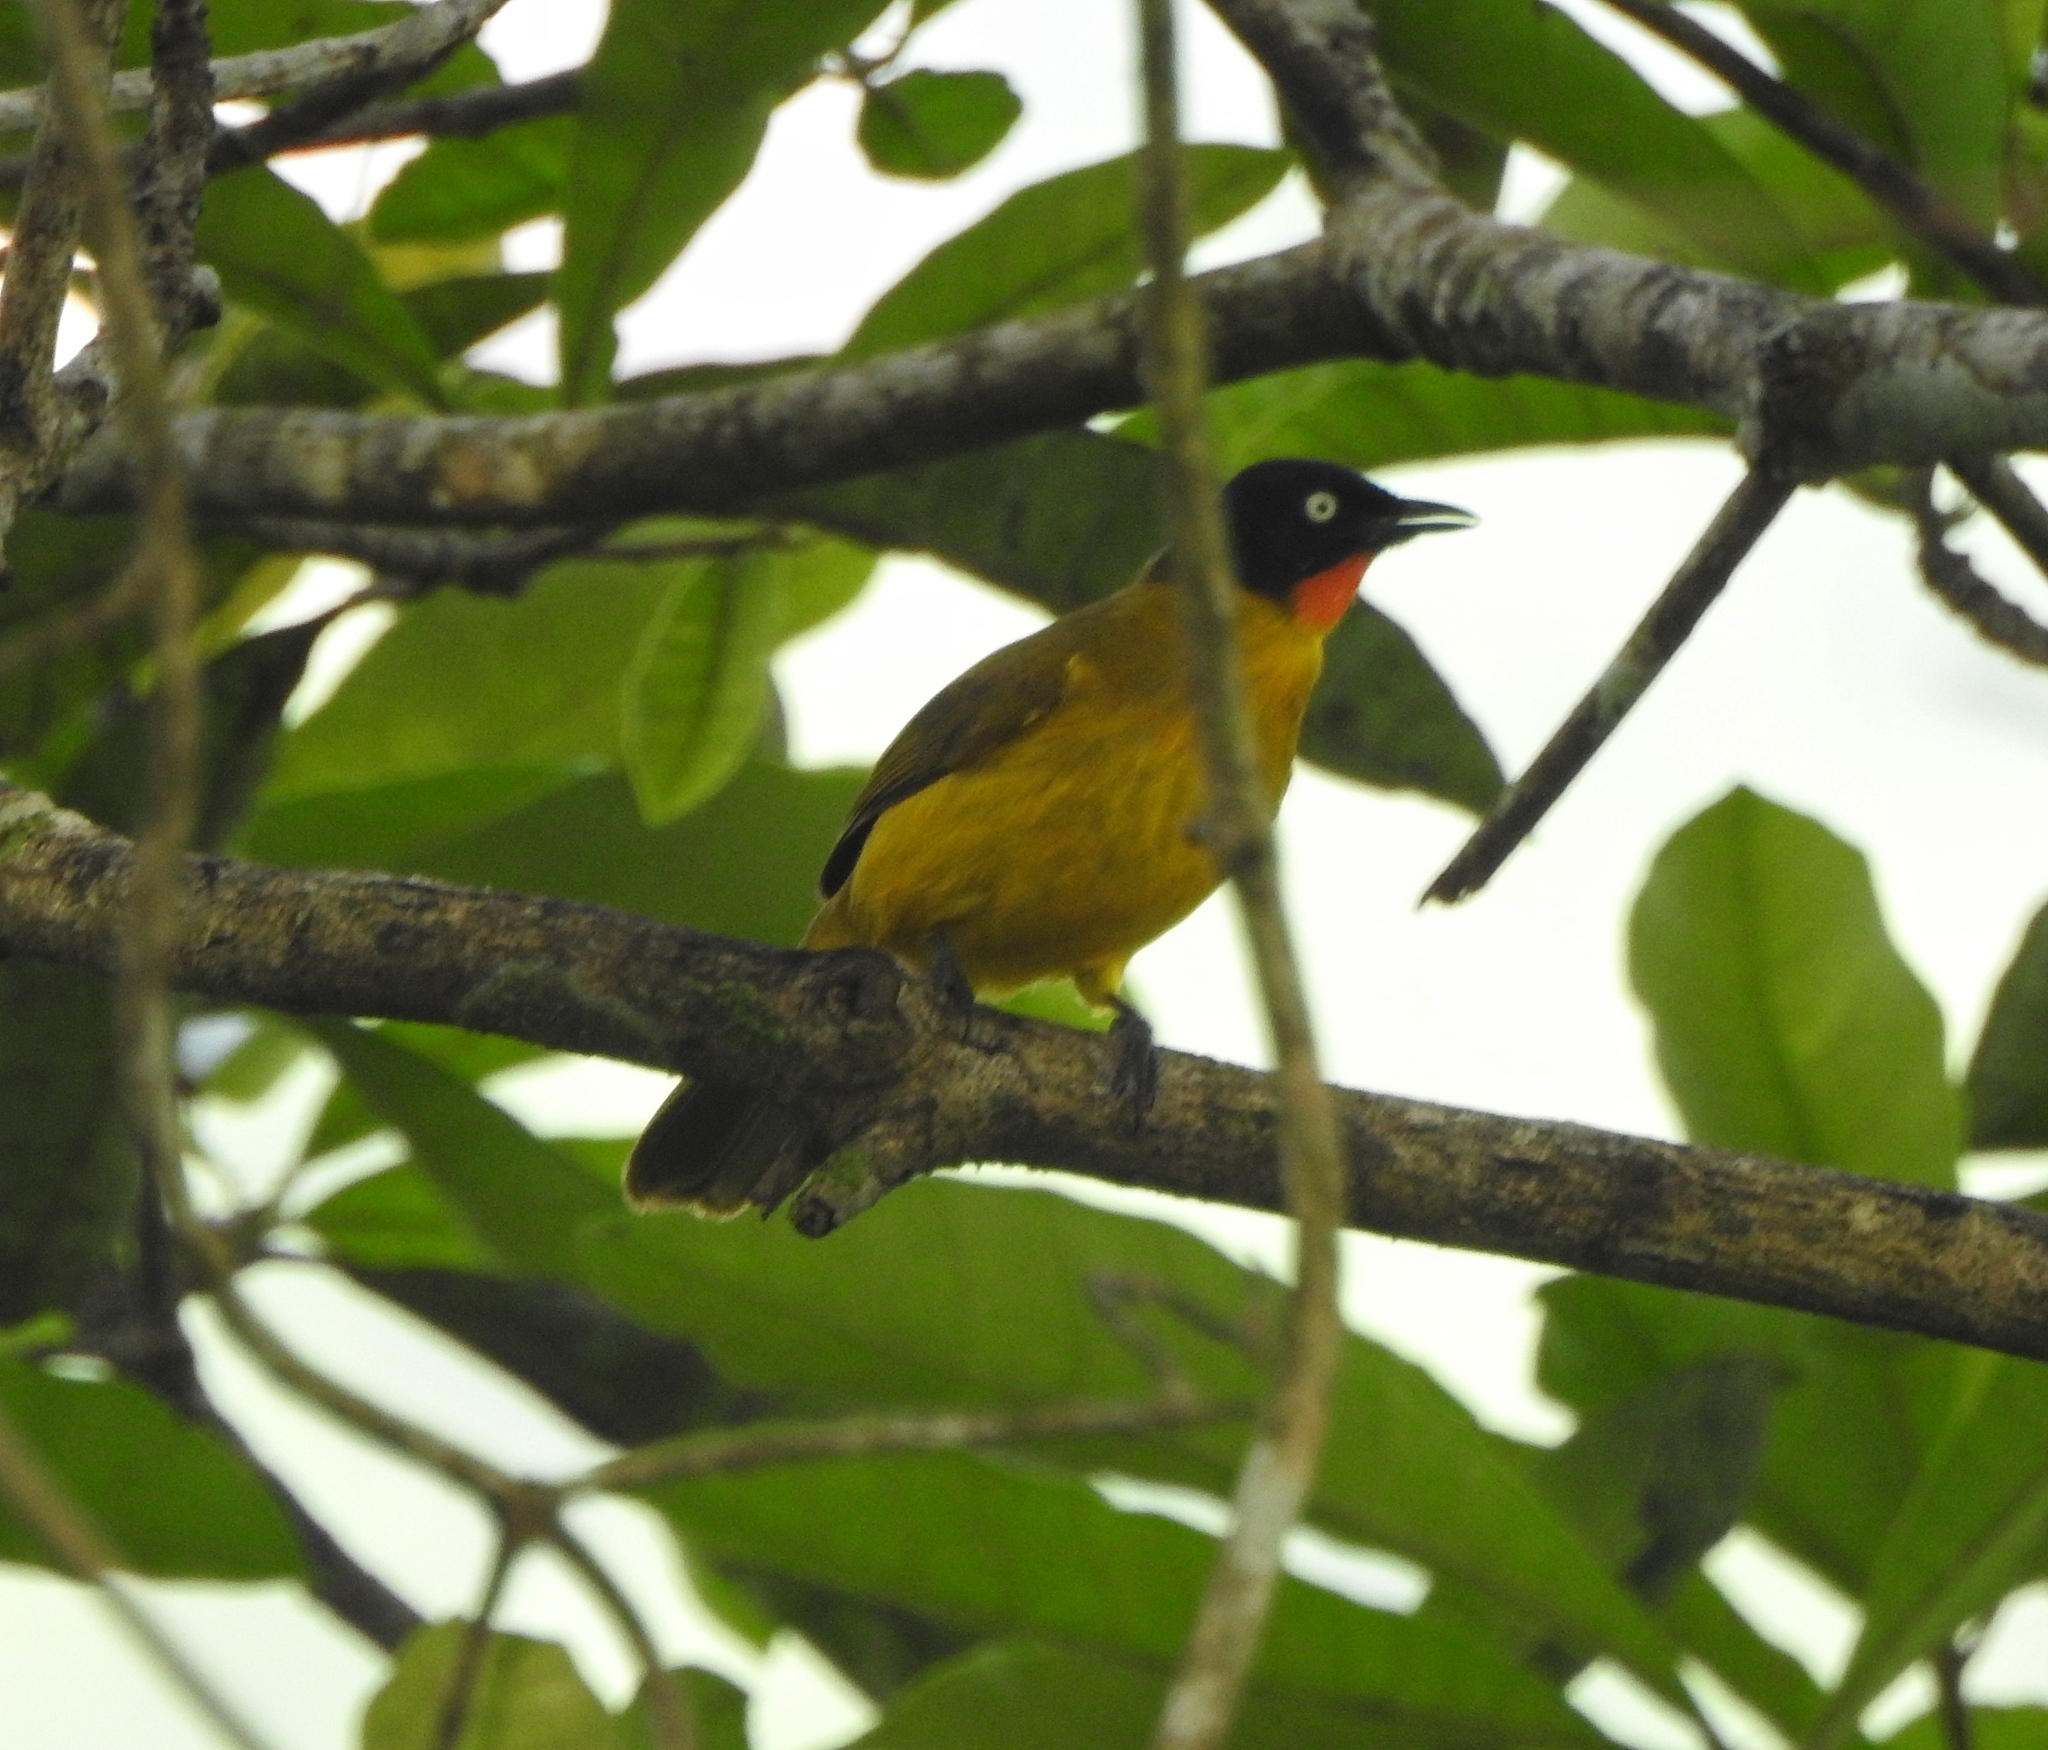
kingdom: Animalia
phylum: Chordata
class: Aves
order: Passeriformes
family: Pycnonotidae
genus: Pycnonotus
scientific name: Pycnonotus gularis
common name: Flame-throated bulbul
